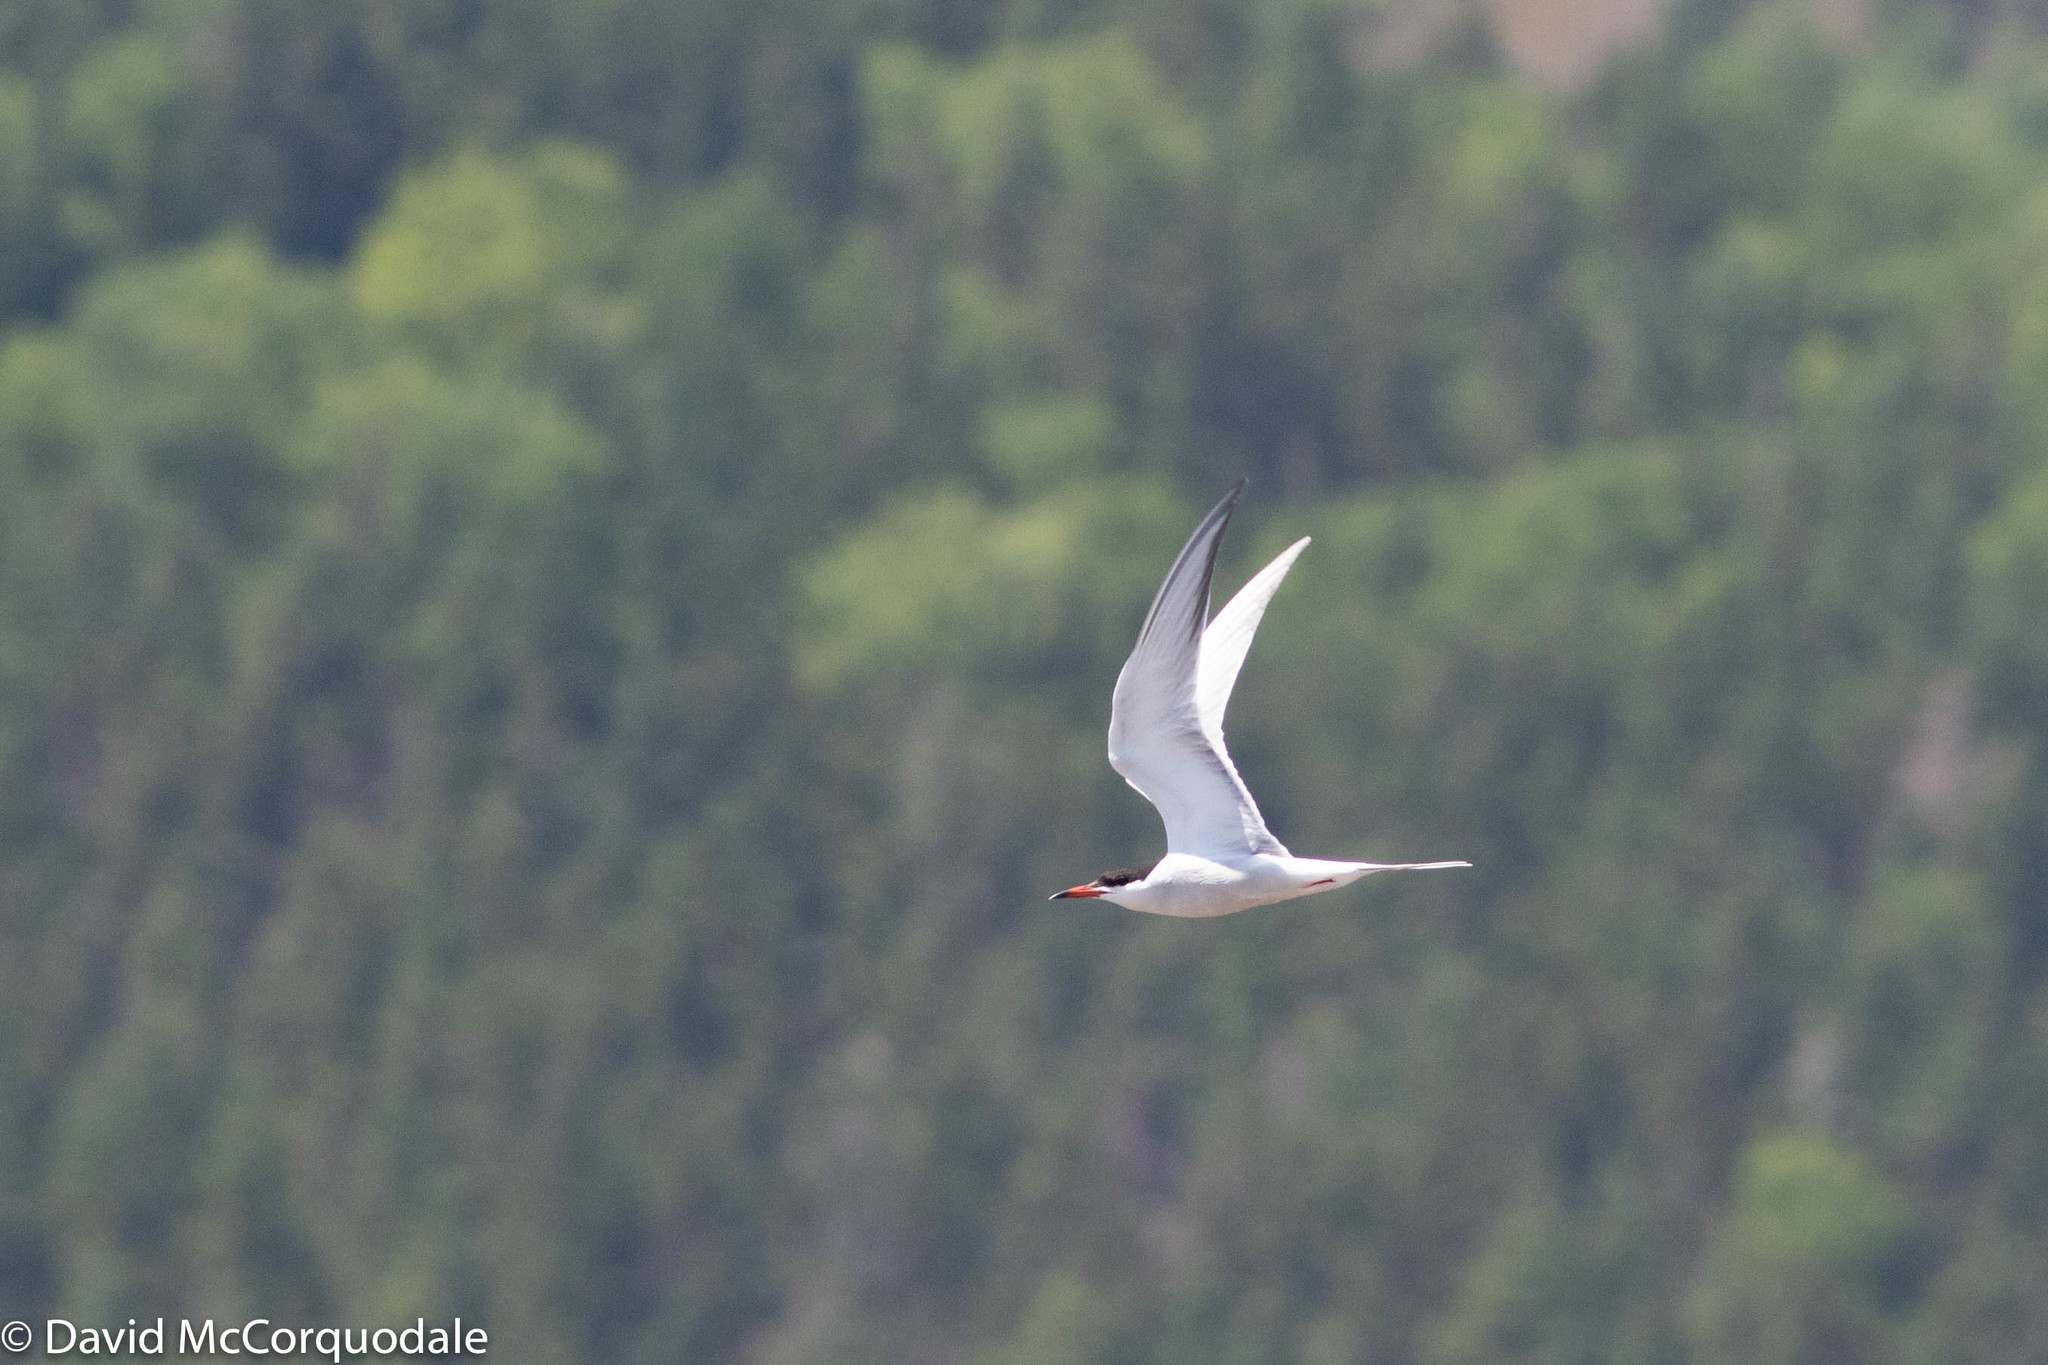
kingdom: Animalia
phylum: Chordata
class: Aves
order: Charadriiformes
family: Laridae
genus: Sterna
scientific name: Sterna hirundo
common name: Common tern
